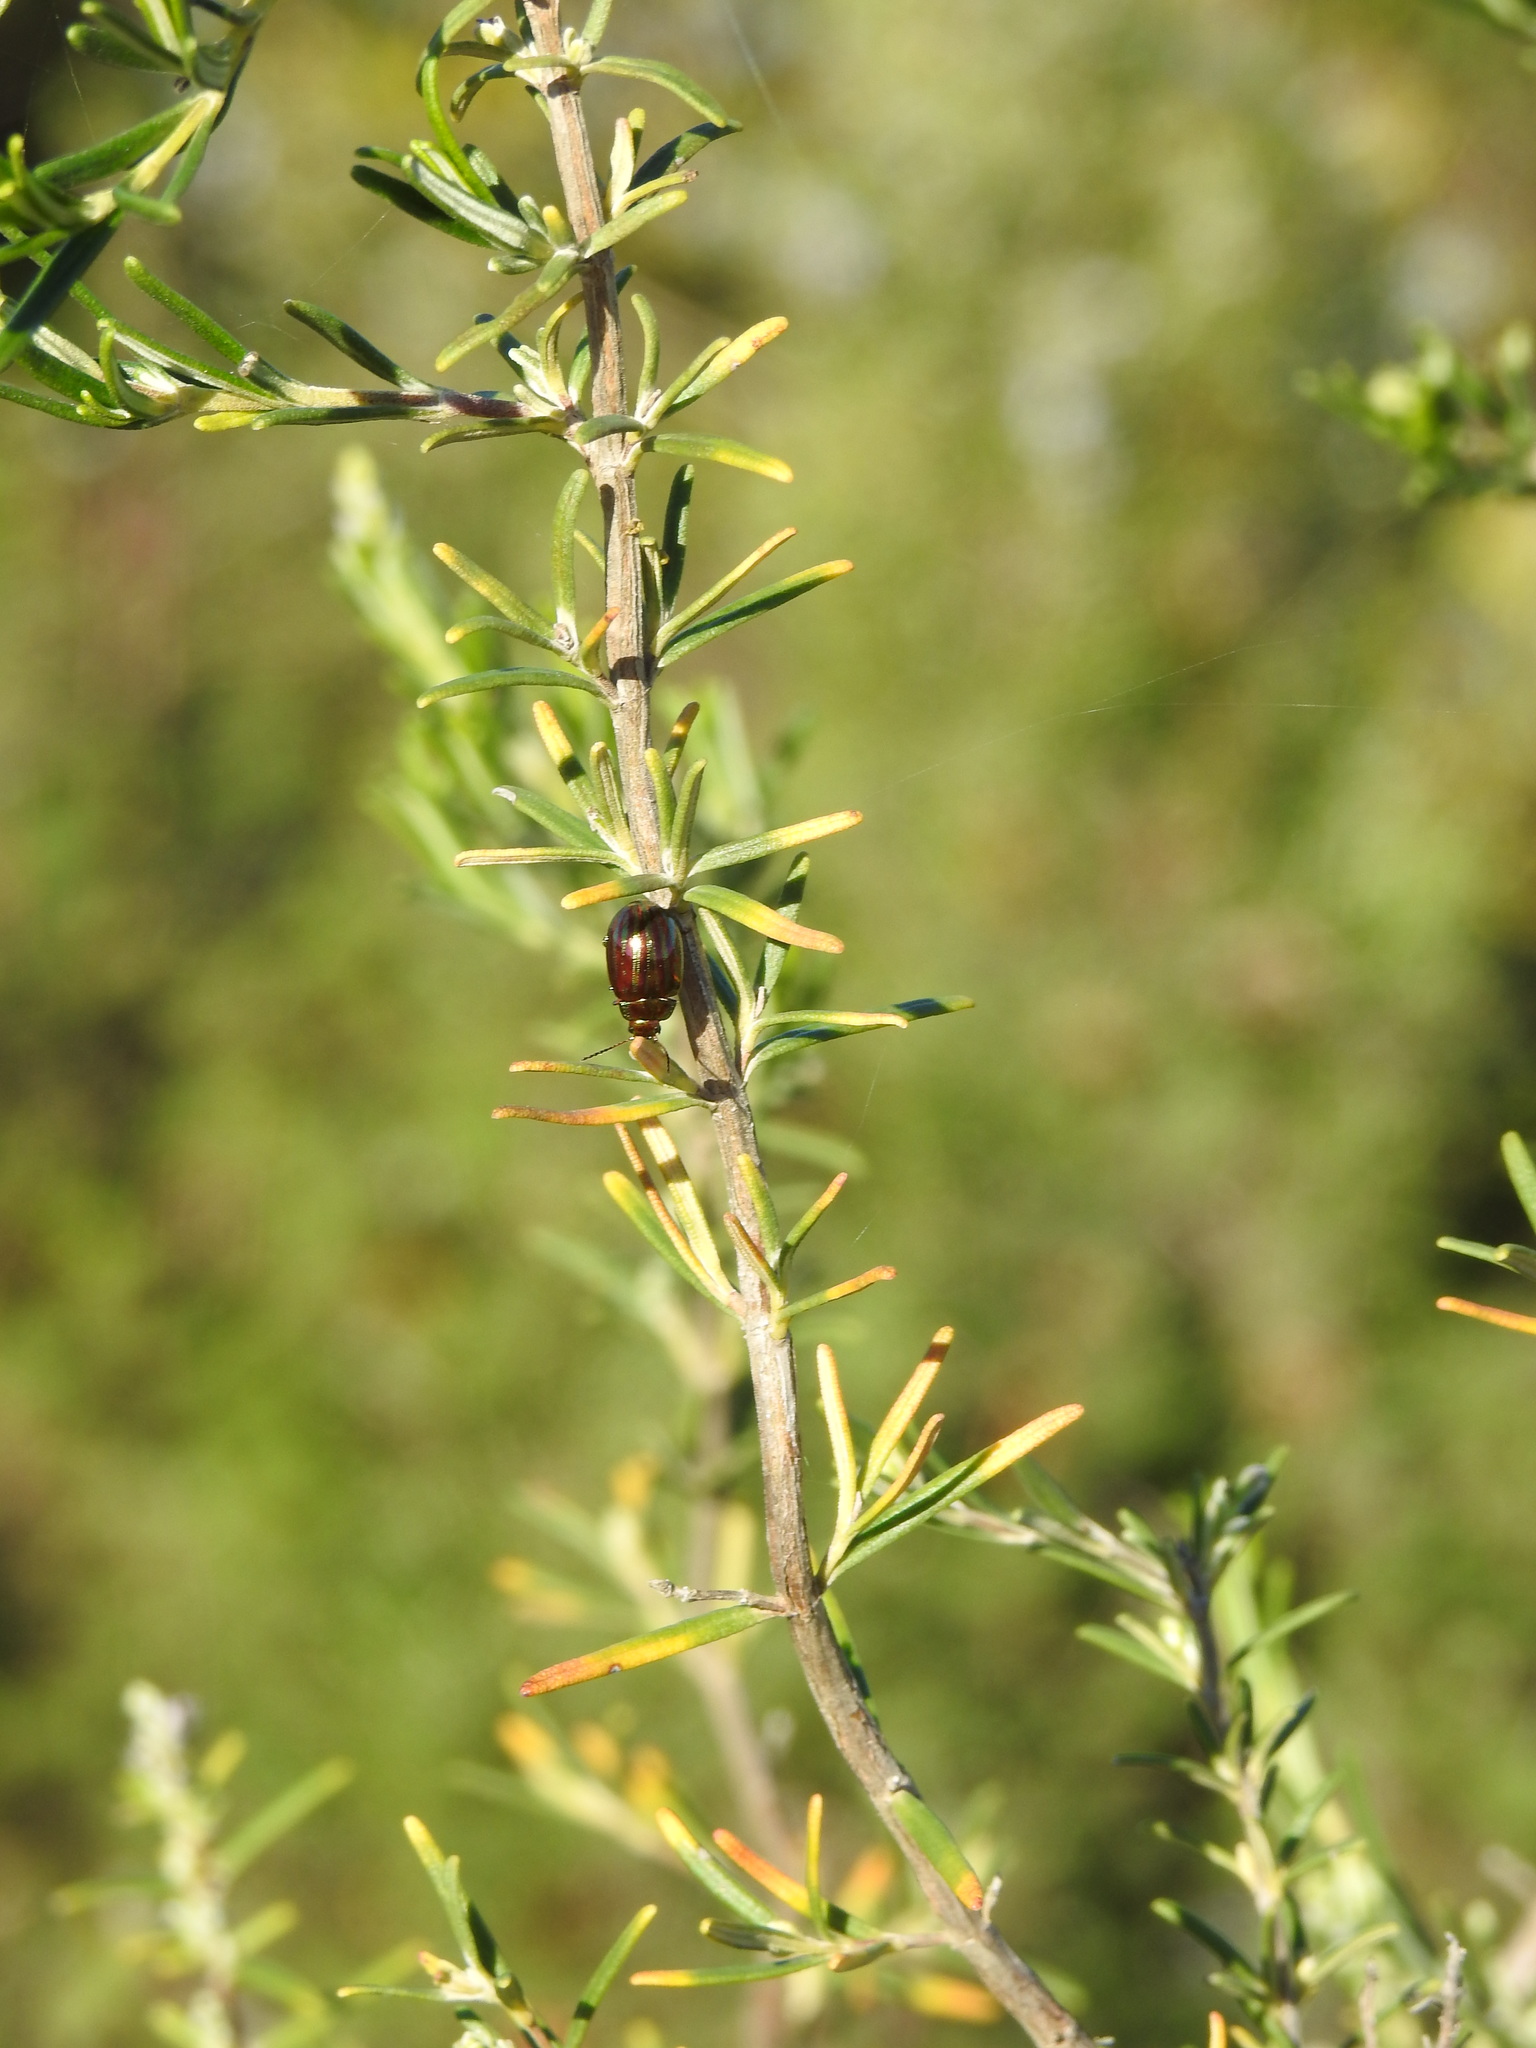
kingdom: Animalia
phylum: Arthropoda
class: Insecta
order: Coleoptera
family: Chrysomelidae
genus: Chrysolina
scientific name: Chrysolina americana
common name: Rosemary beetle
